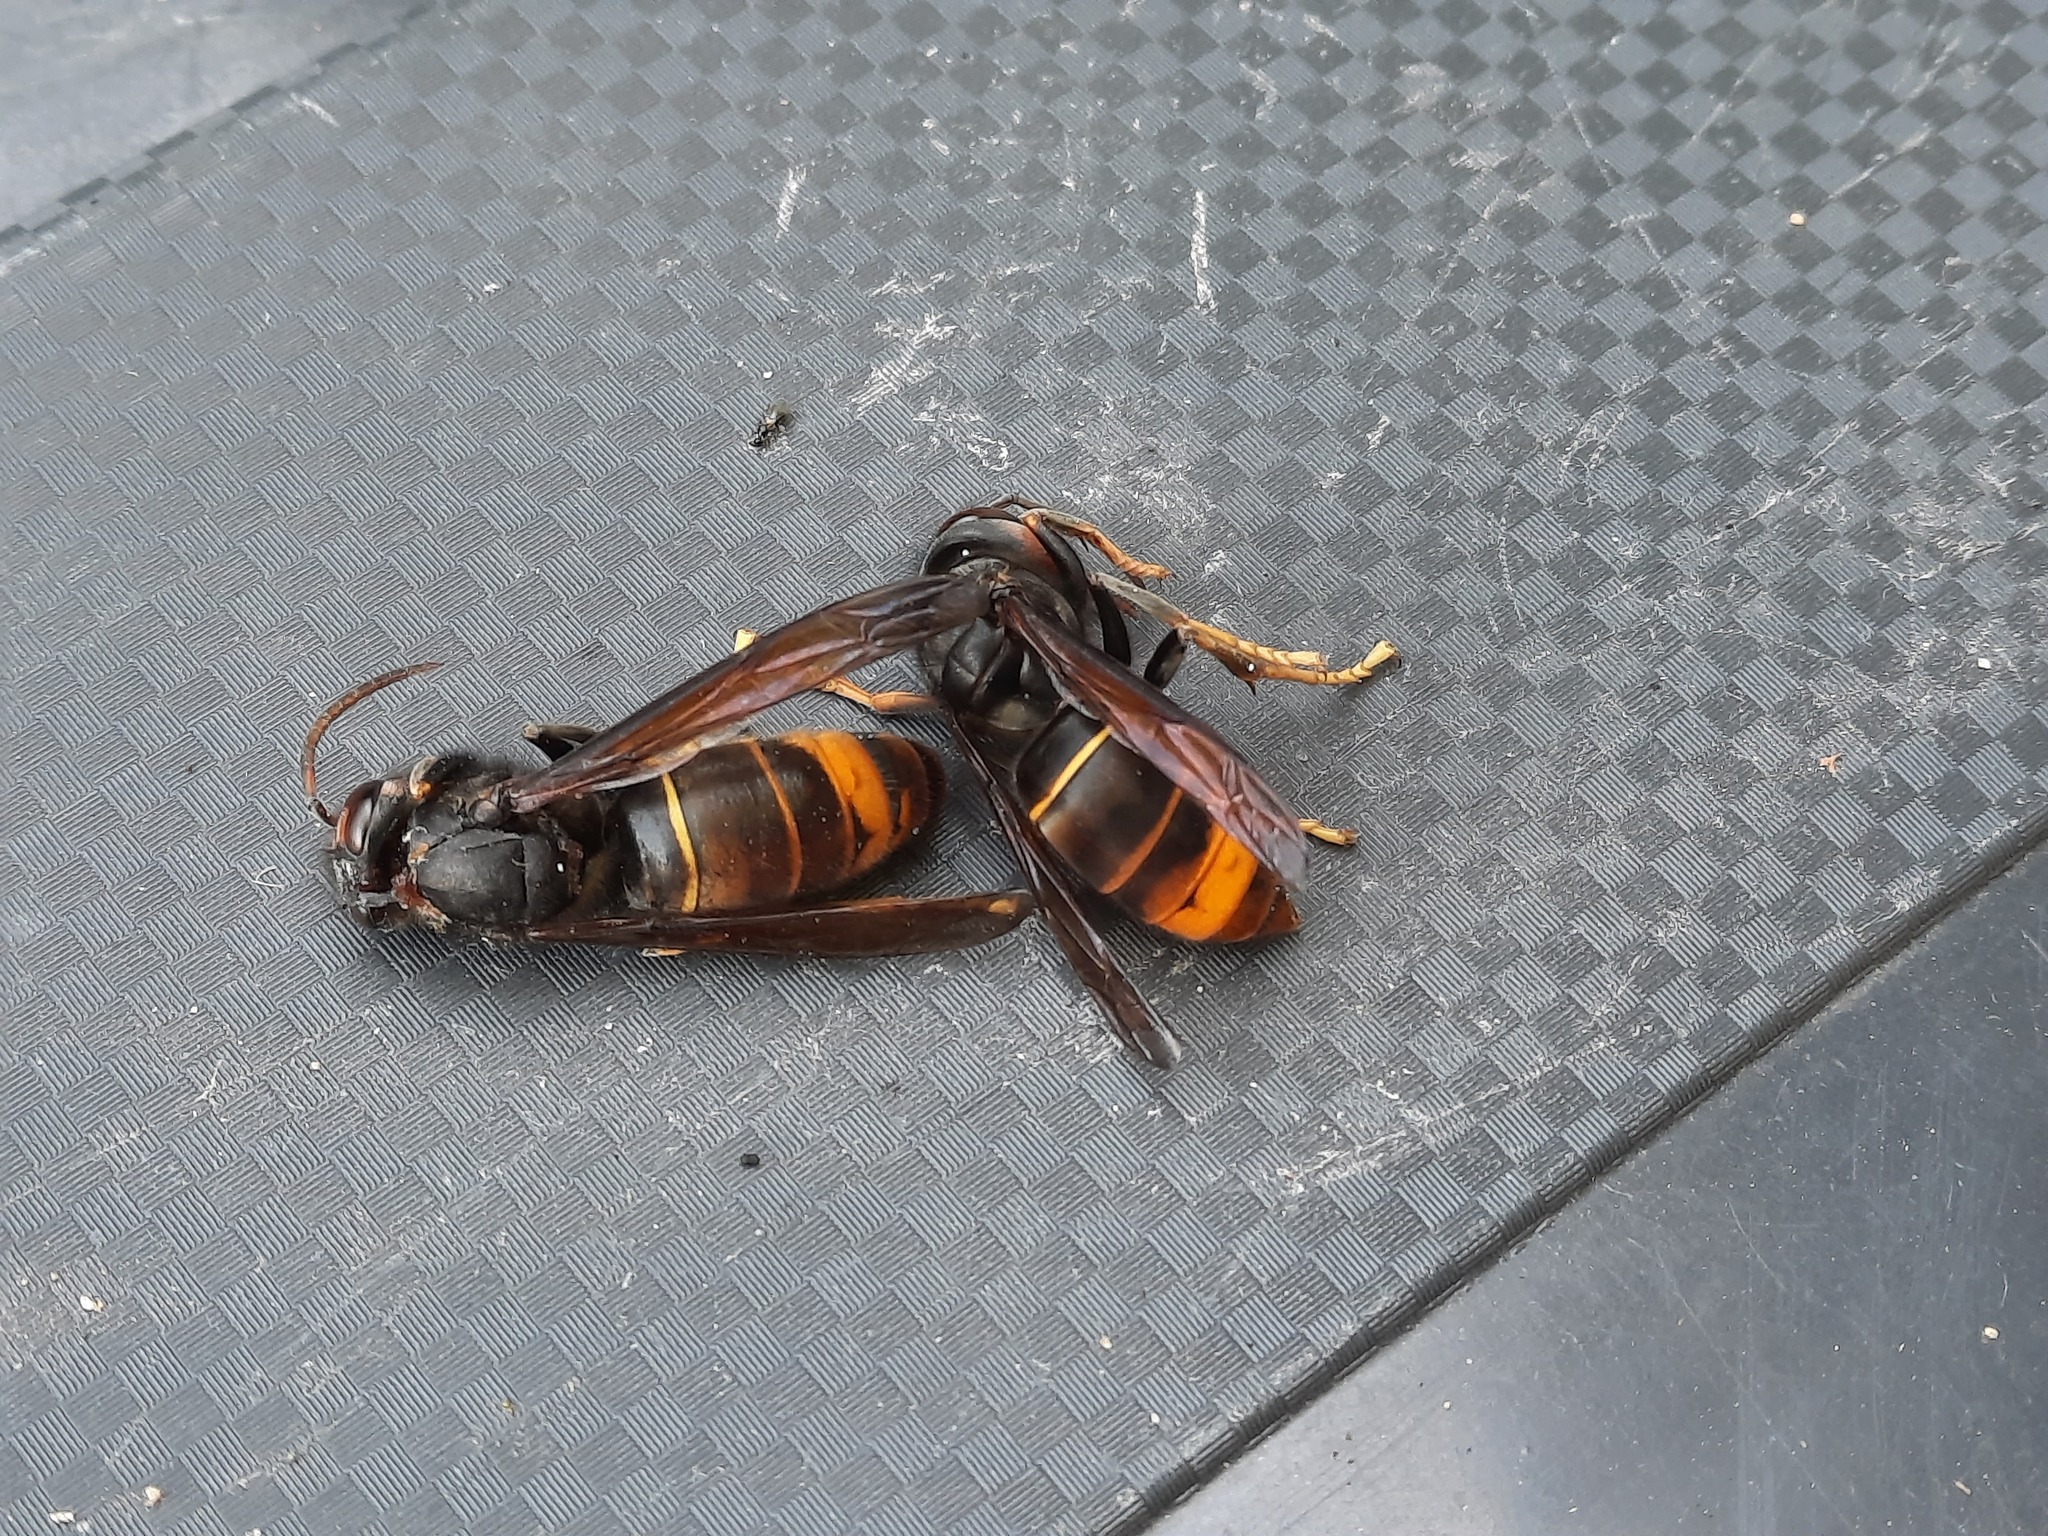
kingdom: Animalia
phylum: Arthropoda
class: Insecta
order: Hymenoptera
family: Vespidae
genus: Vespa
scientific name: Vespa velutina
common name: Asian hornet
